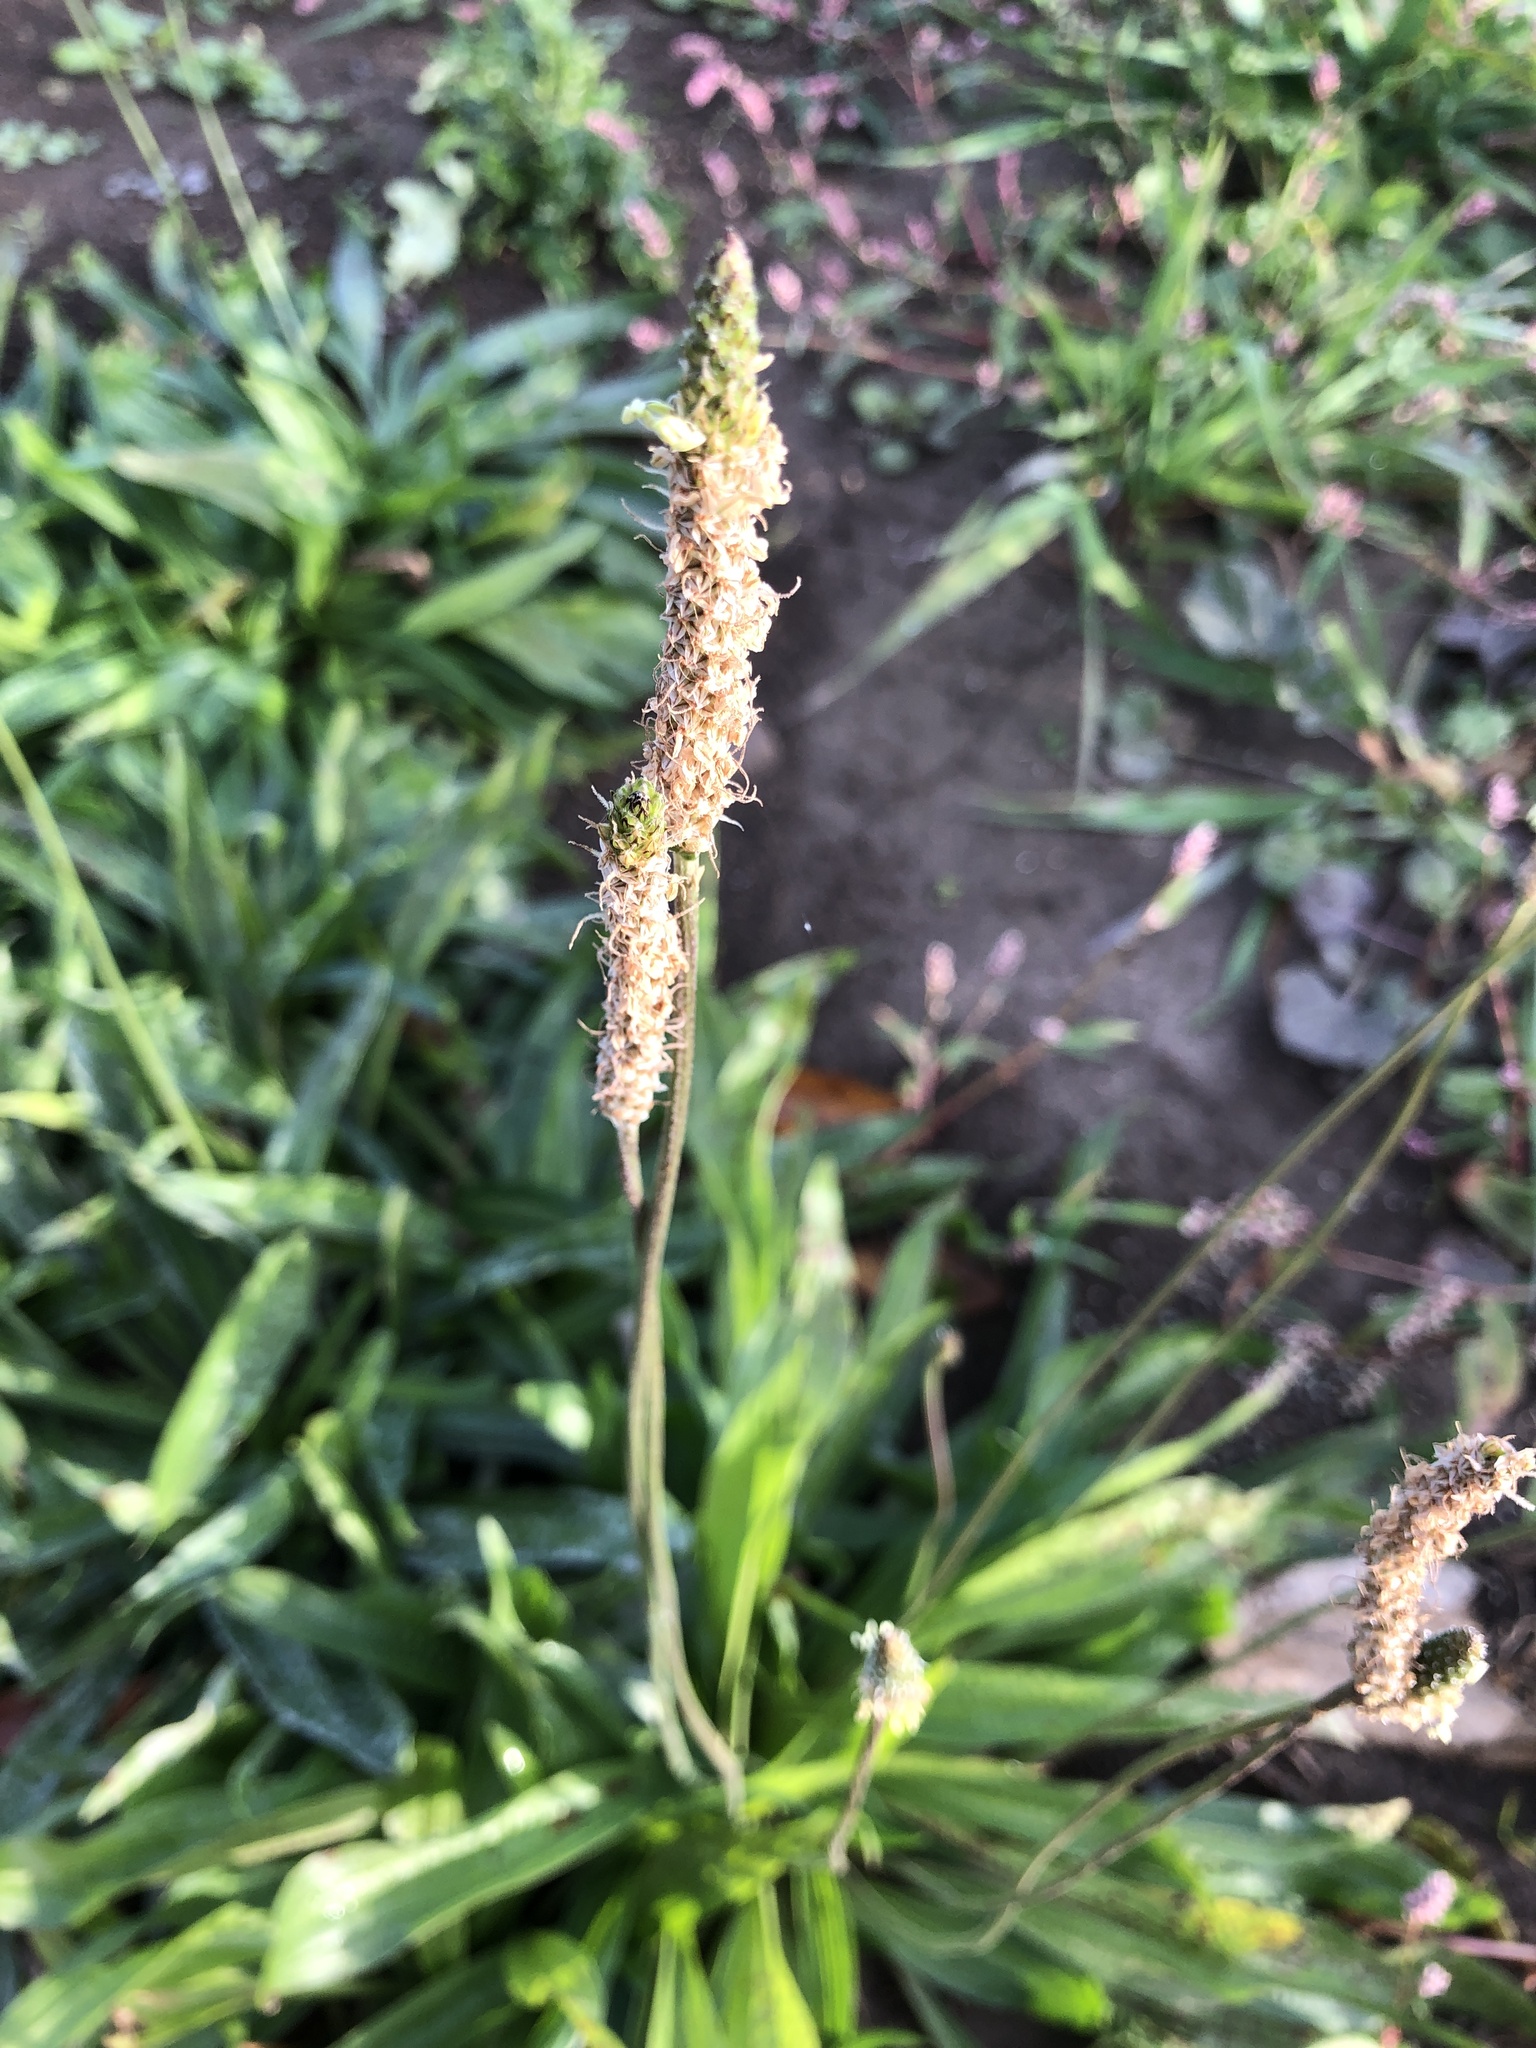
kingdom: Plantae
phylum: Tracheophyta
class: Magnoliopsida
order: Lamiales
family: Plantaginaceae
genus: Plantago
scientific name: Plantago lanceolata
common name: Ribwort plantain
